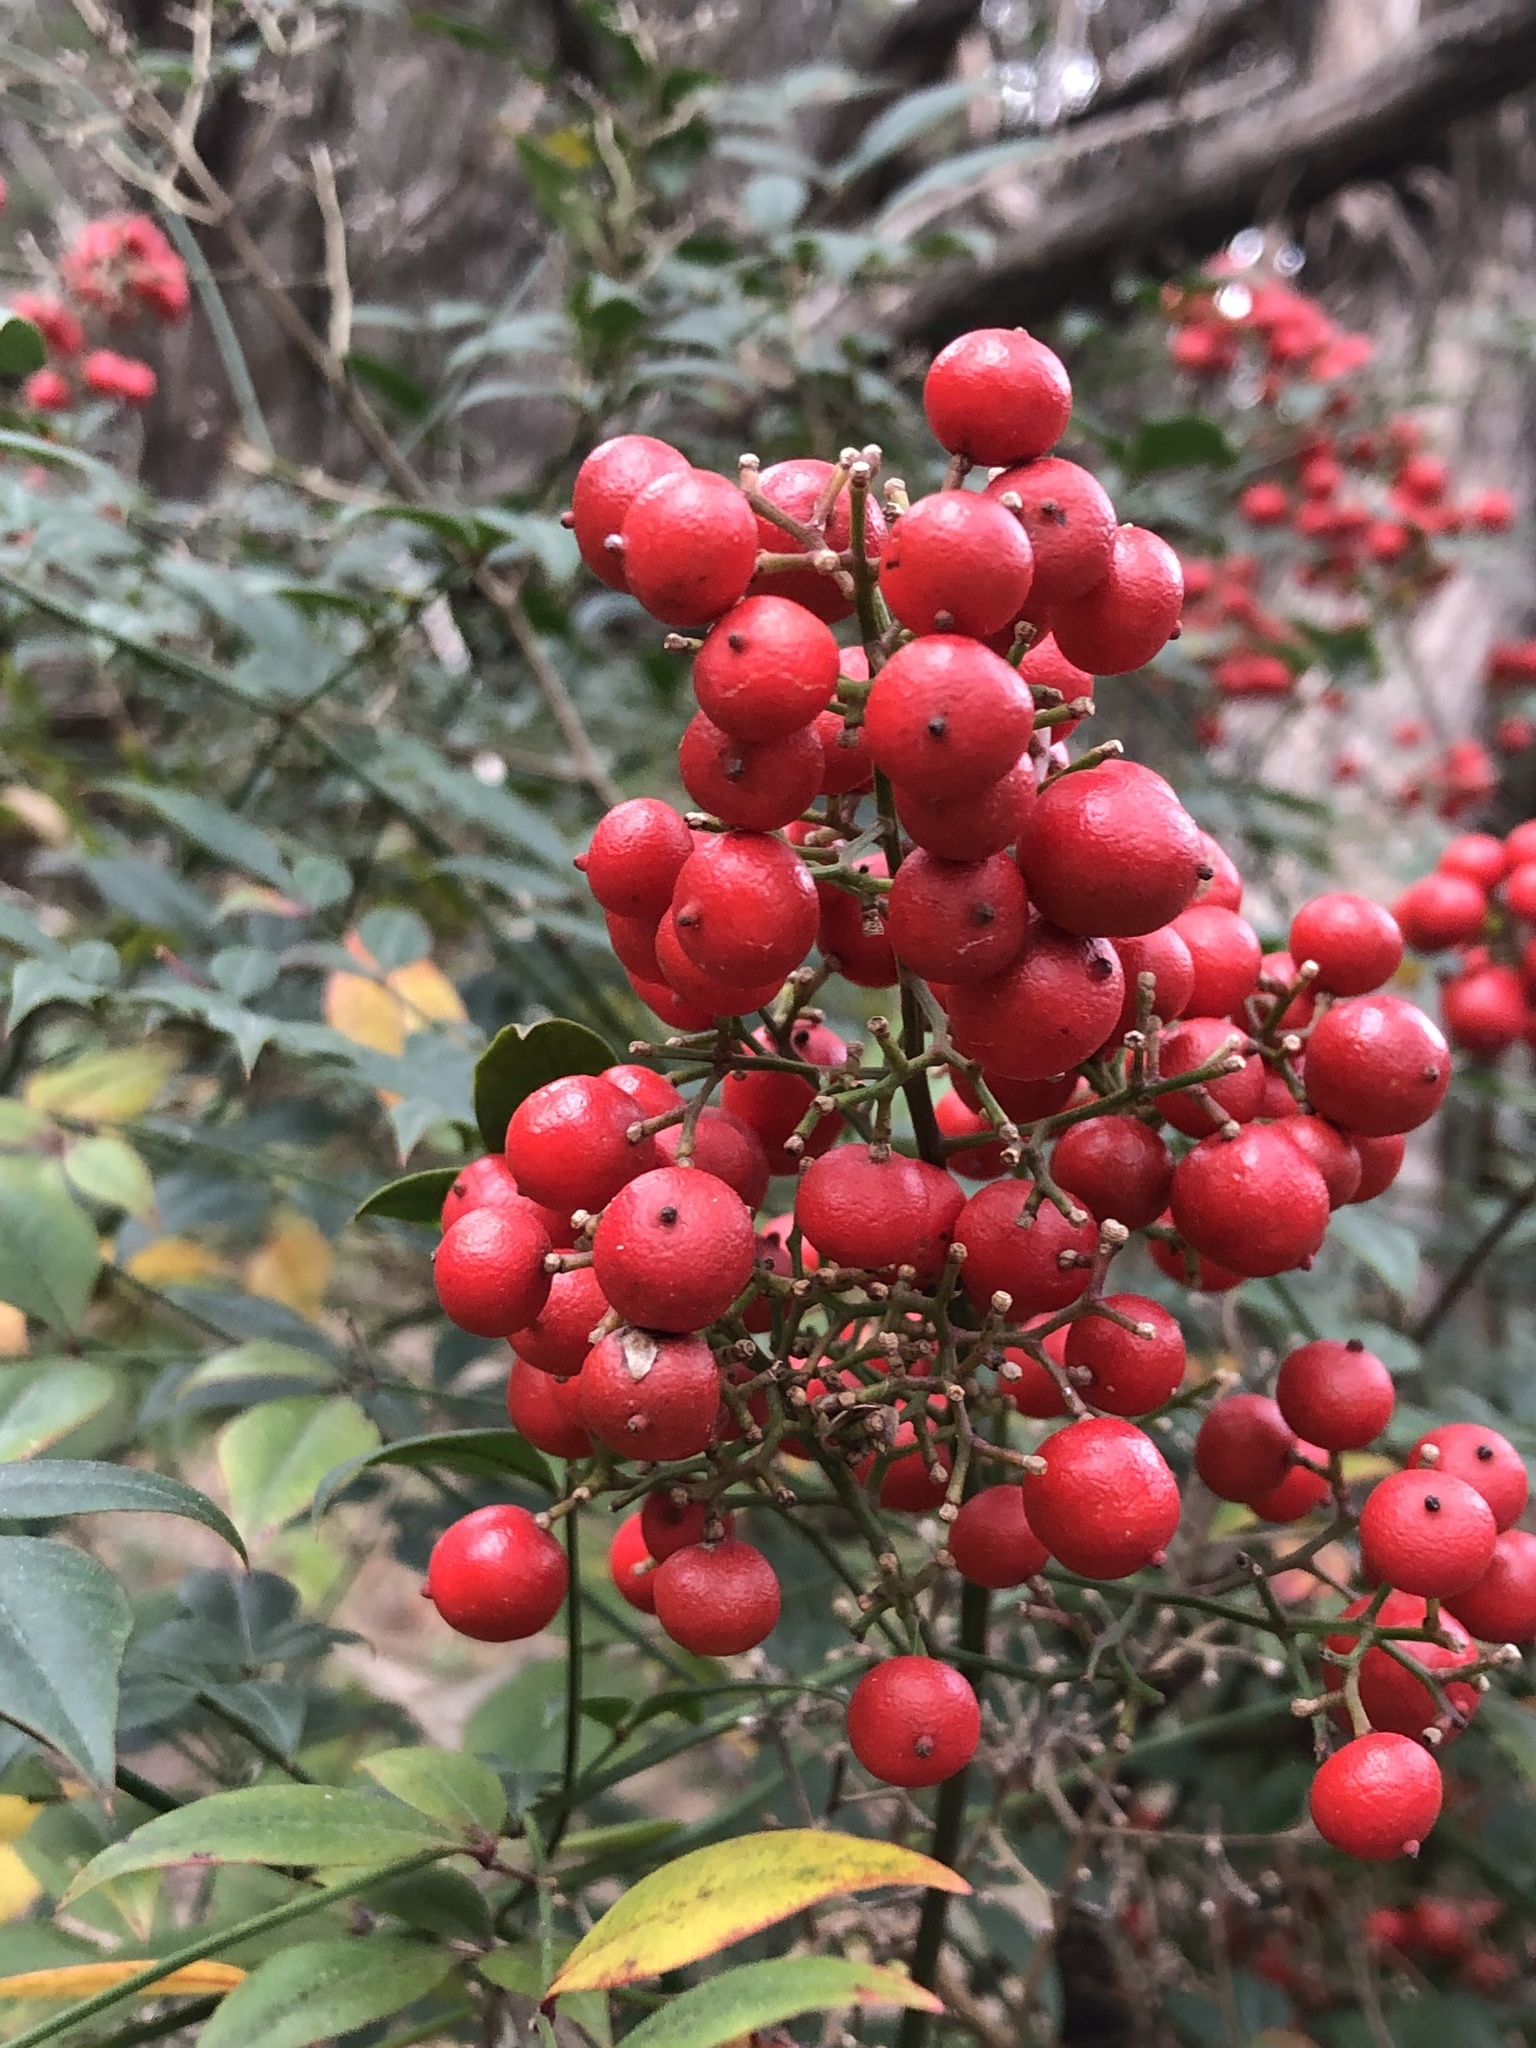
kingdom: Plantae
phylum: Tracheophyta
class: Magnoliopsida
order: Ranunculales
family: Berberidaceae
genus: Nandina
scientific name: Nandina domestica
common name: Sacred bamboo
